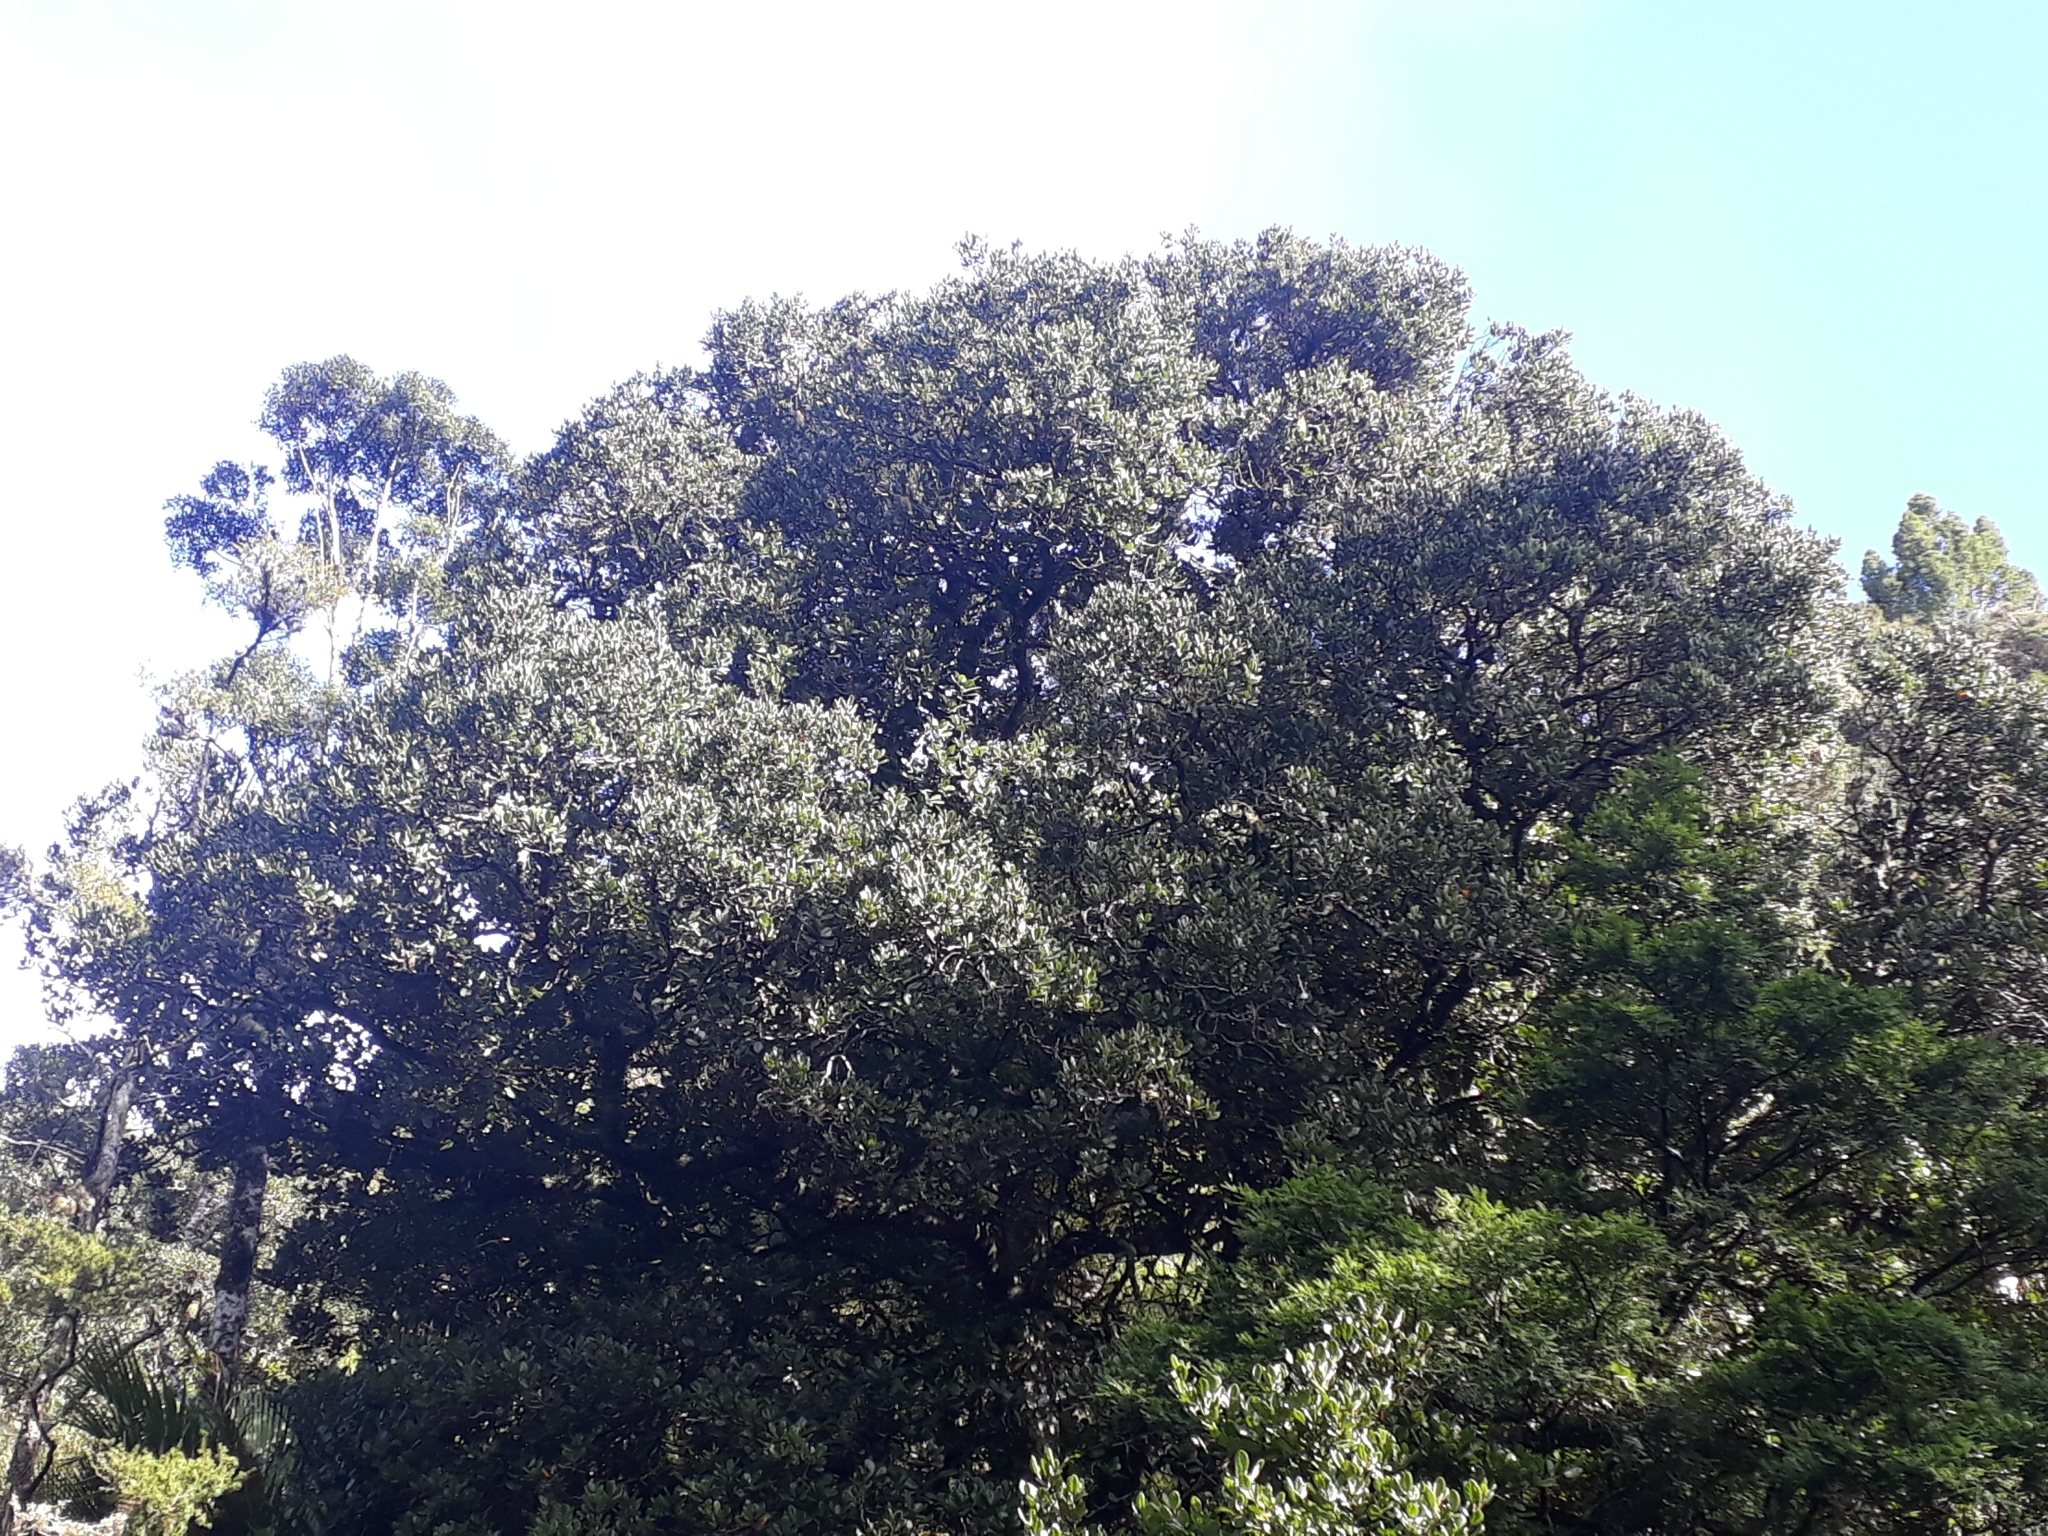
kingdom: Plantae
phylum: Tracheophyta
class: Magnoliopsida
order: Laurales
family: Lauraceae
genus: Beilschmiedia
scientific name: Beilschmiedia tarairi
